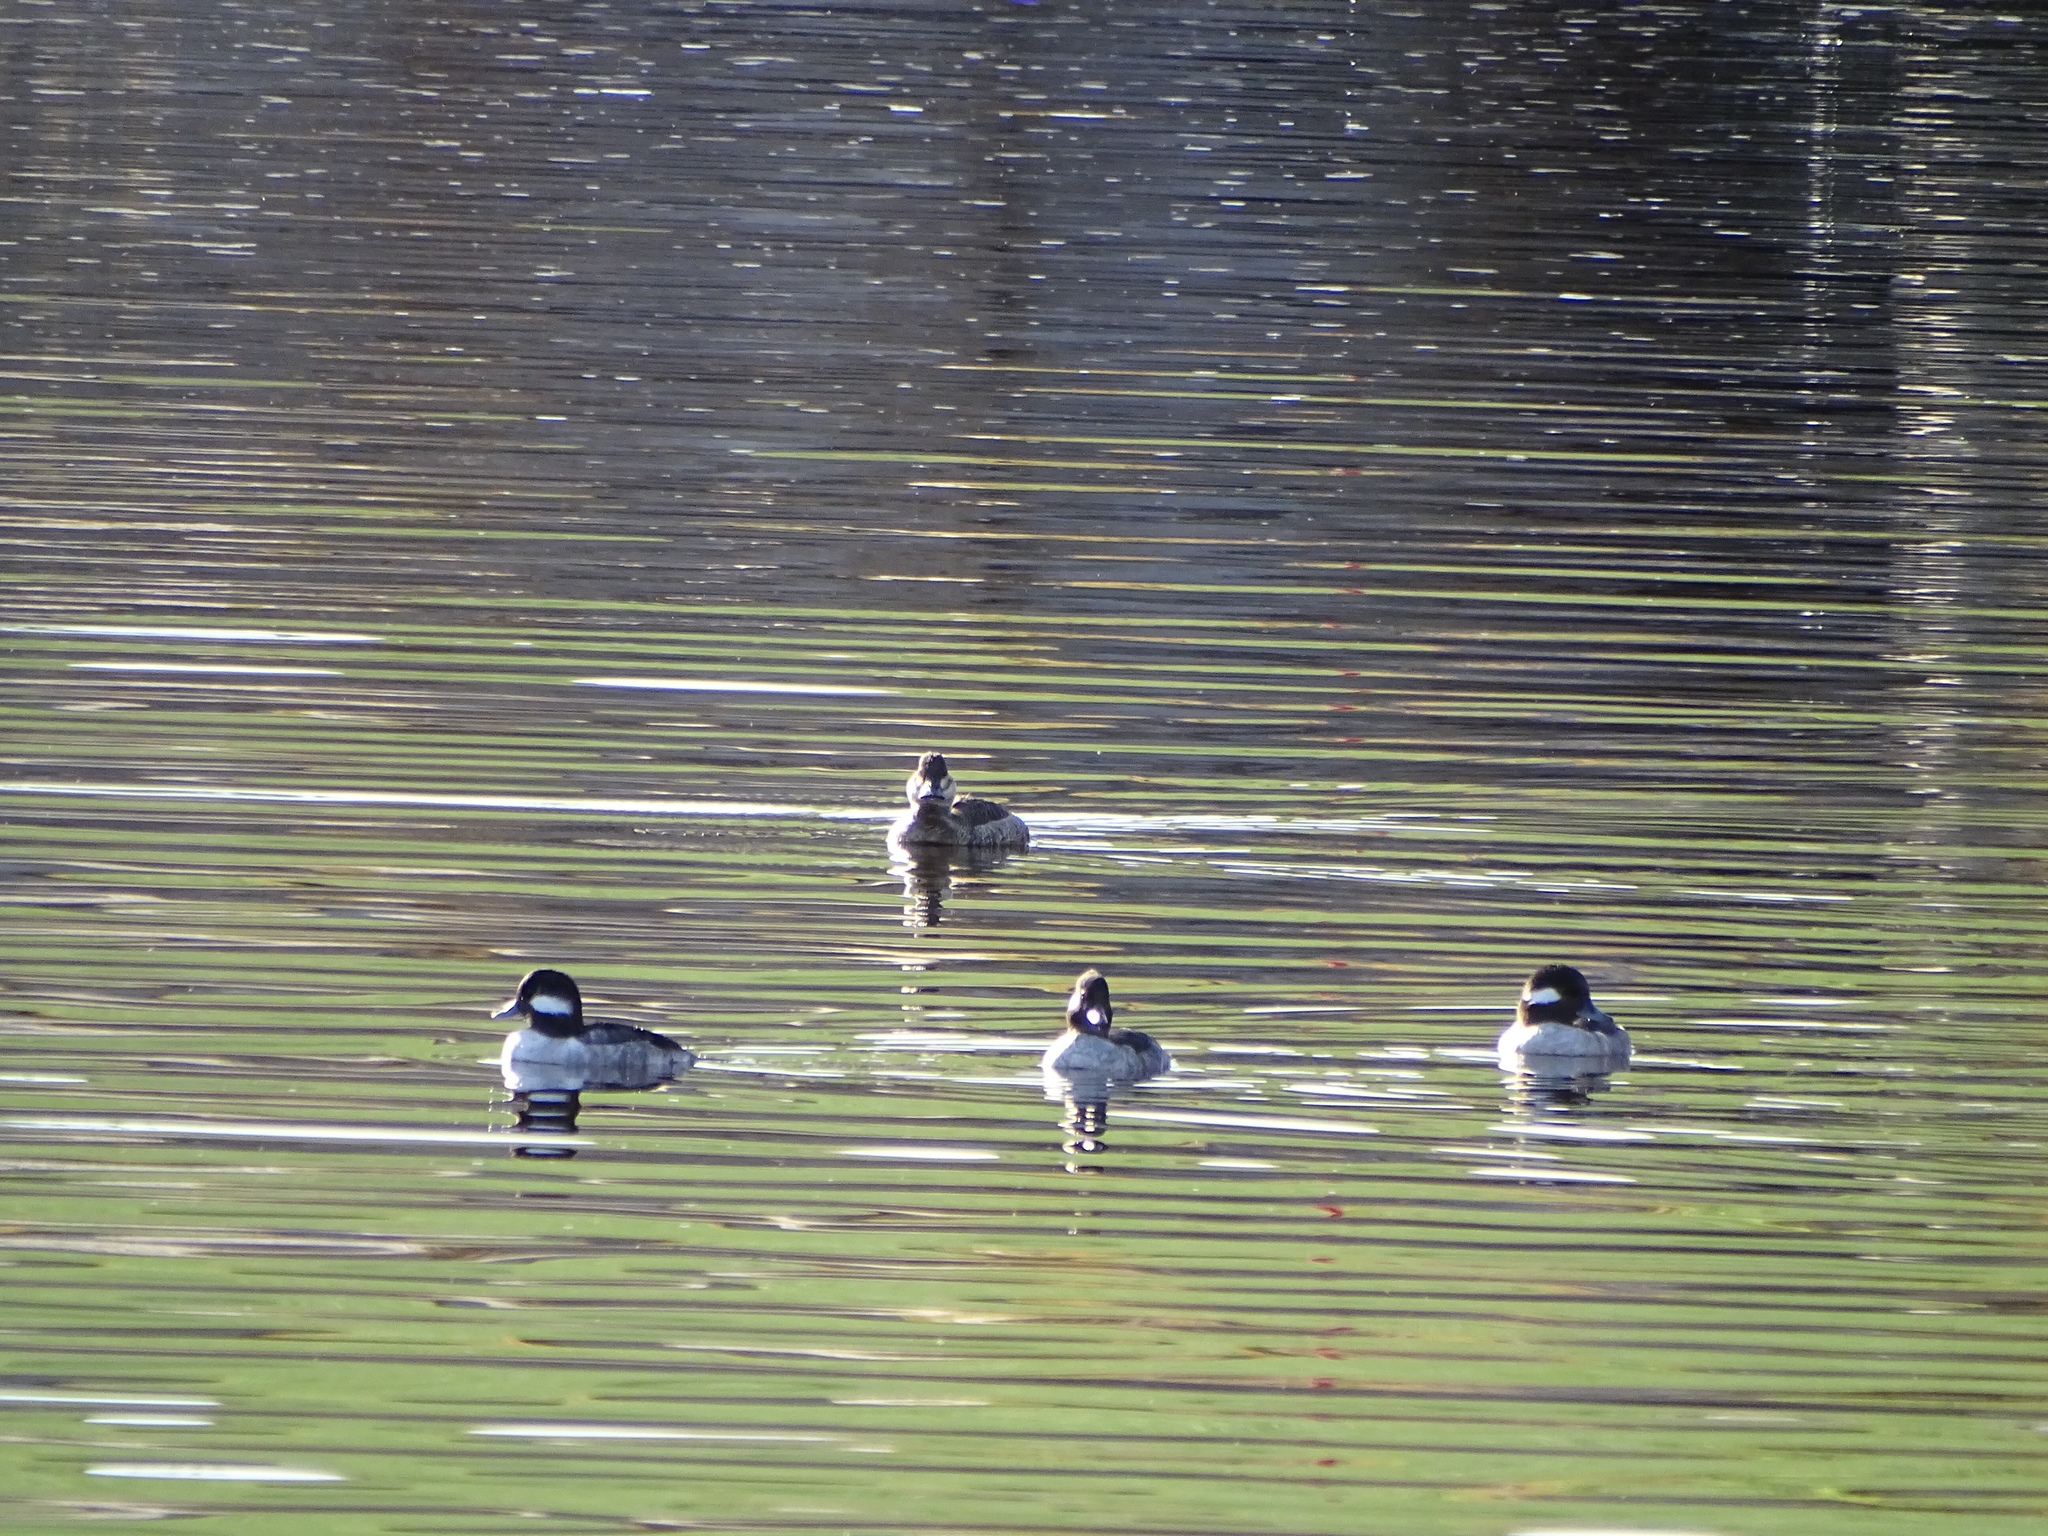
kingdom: Animalia
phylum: Chordata
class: Aves
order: Anseriformes
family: Anatidae
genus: Bucephala
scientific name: Bucephala albeola
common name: Bufflehead
